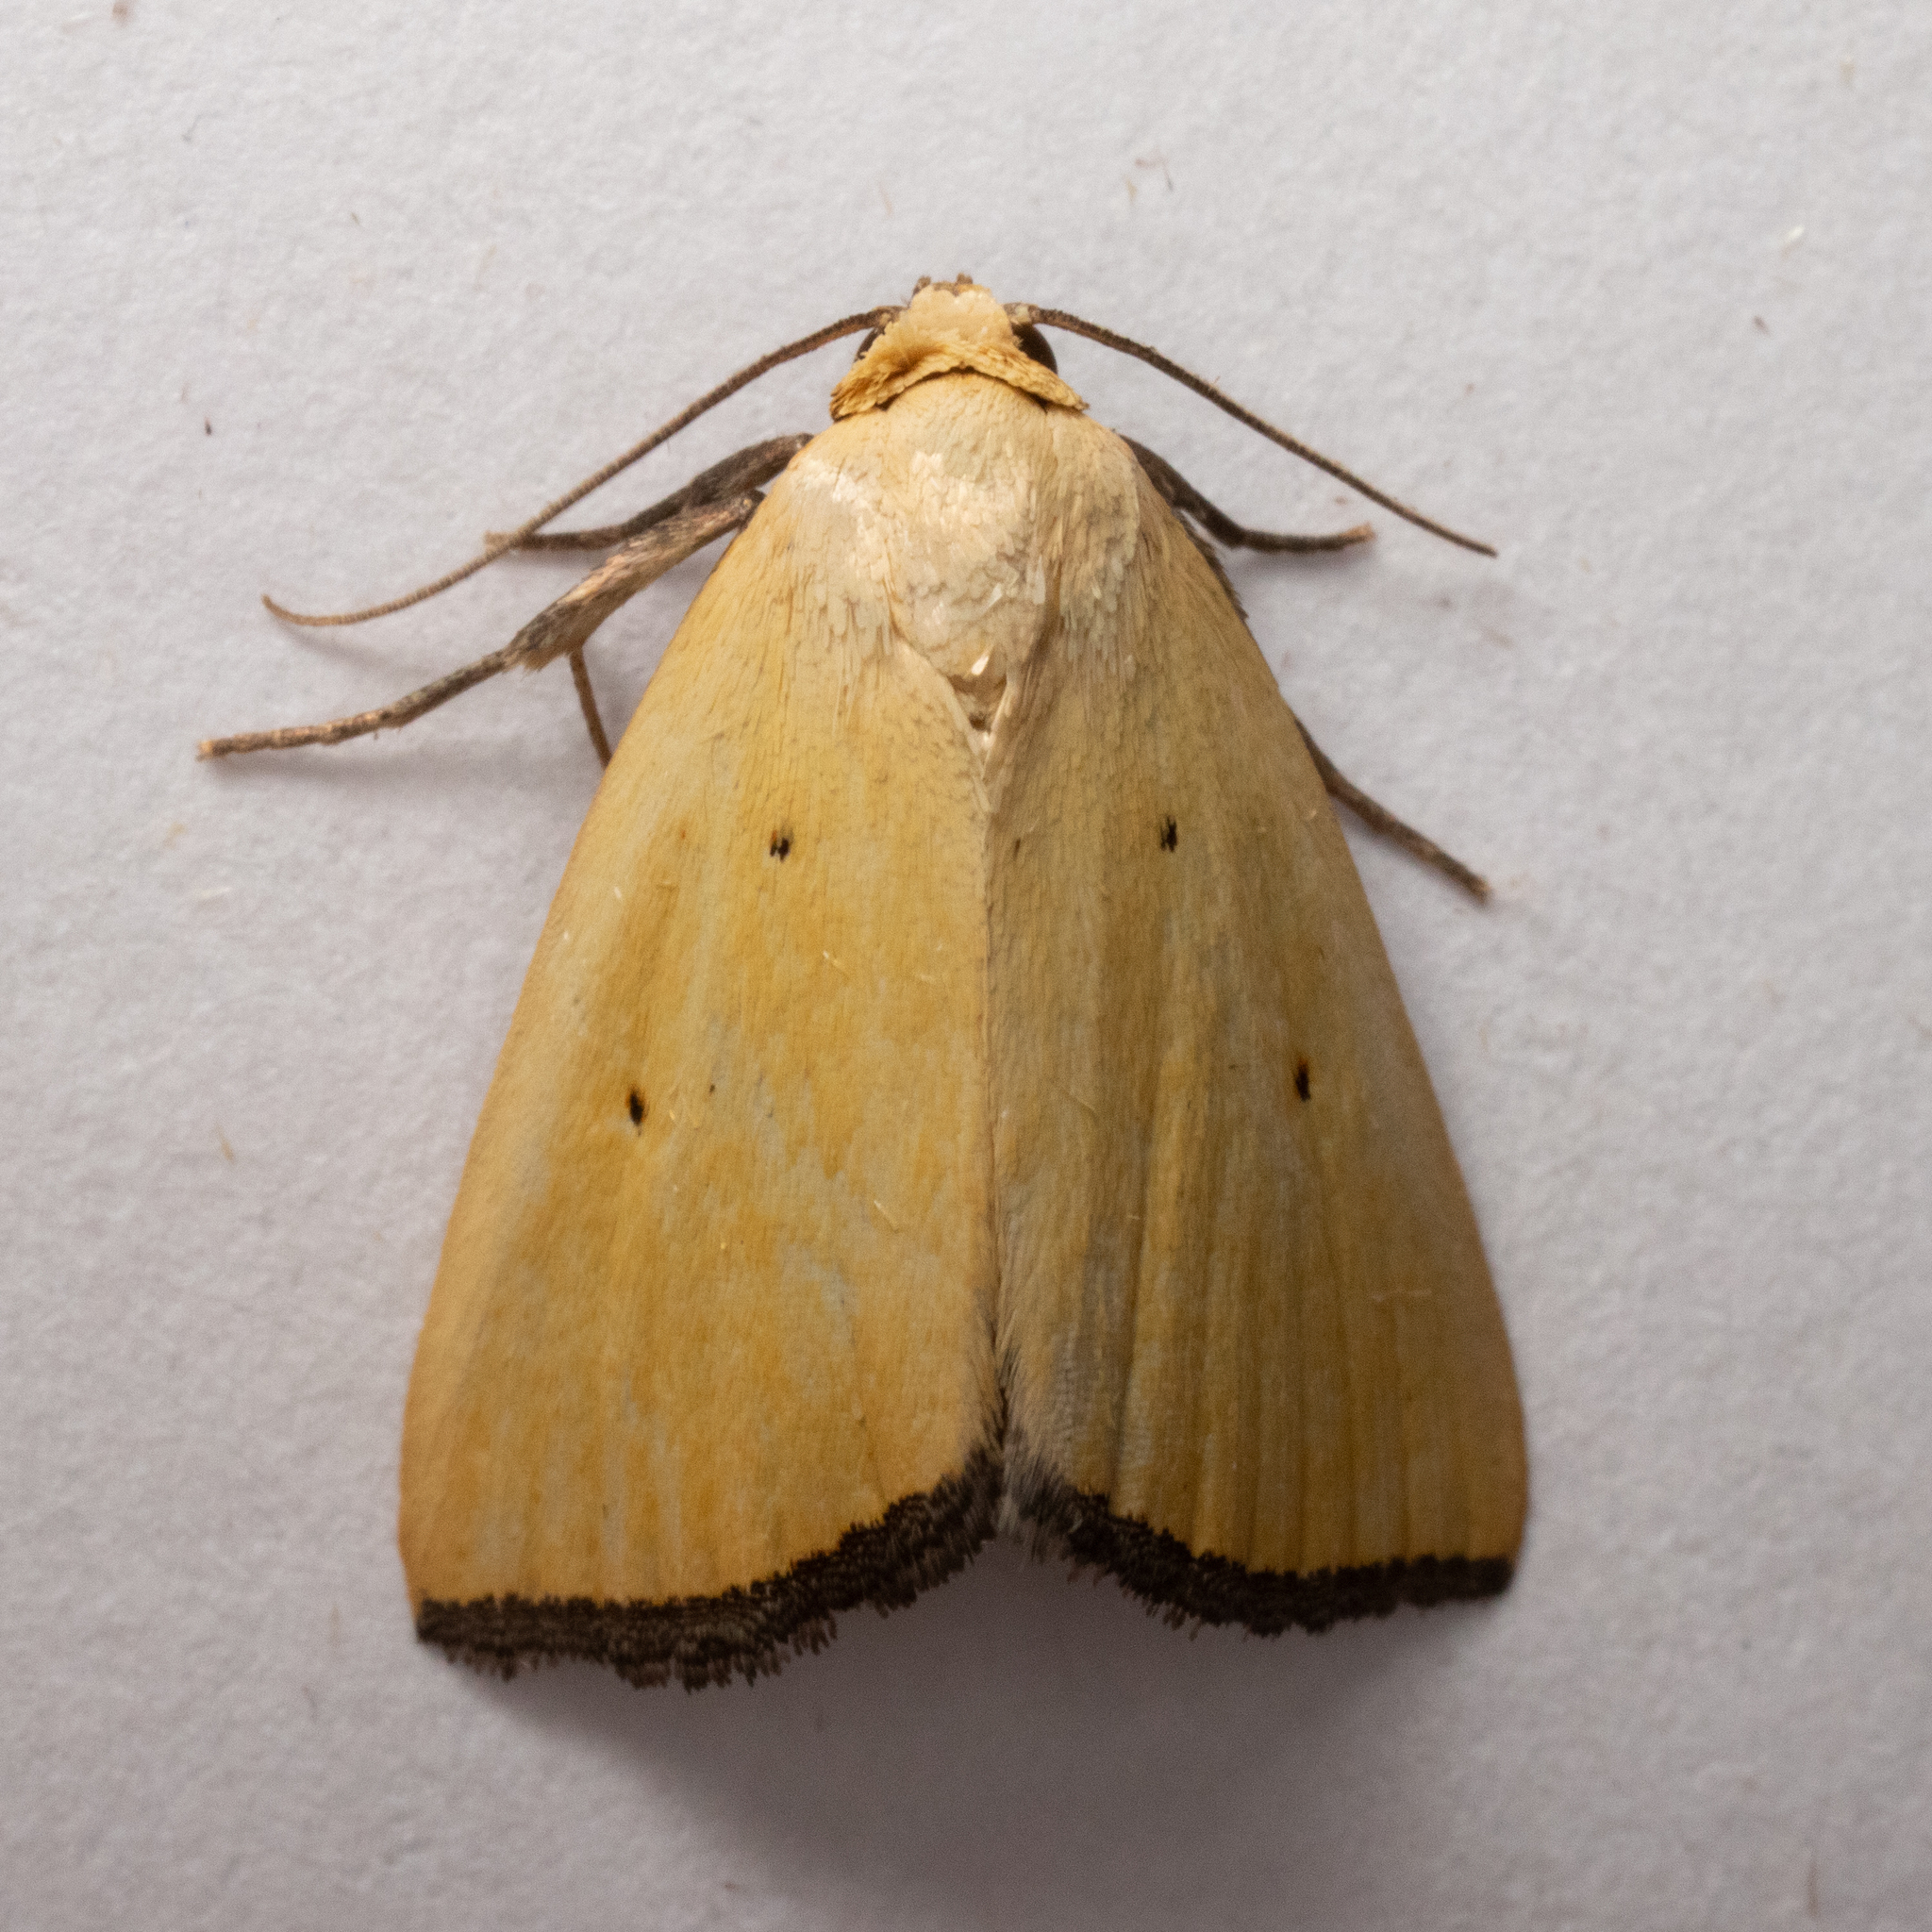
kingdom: Animalia
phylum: Arthropoda
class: Insecta
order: Lepidoptera
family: Noctuidae
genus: Marimatha
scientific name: Marimatha nigrofimbria
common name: Black-bordered lemon moth
